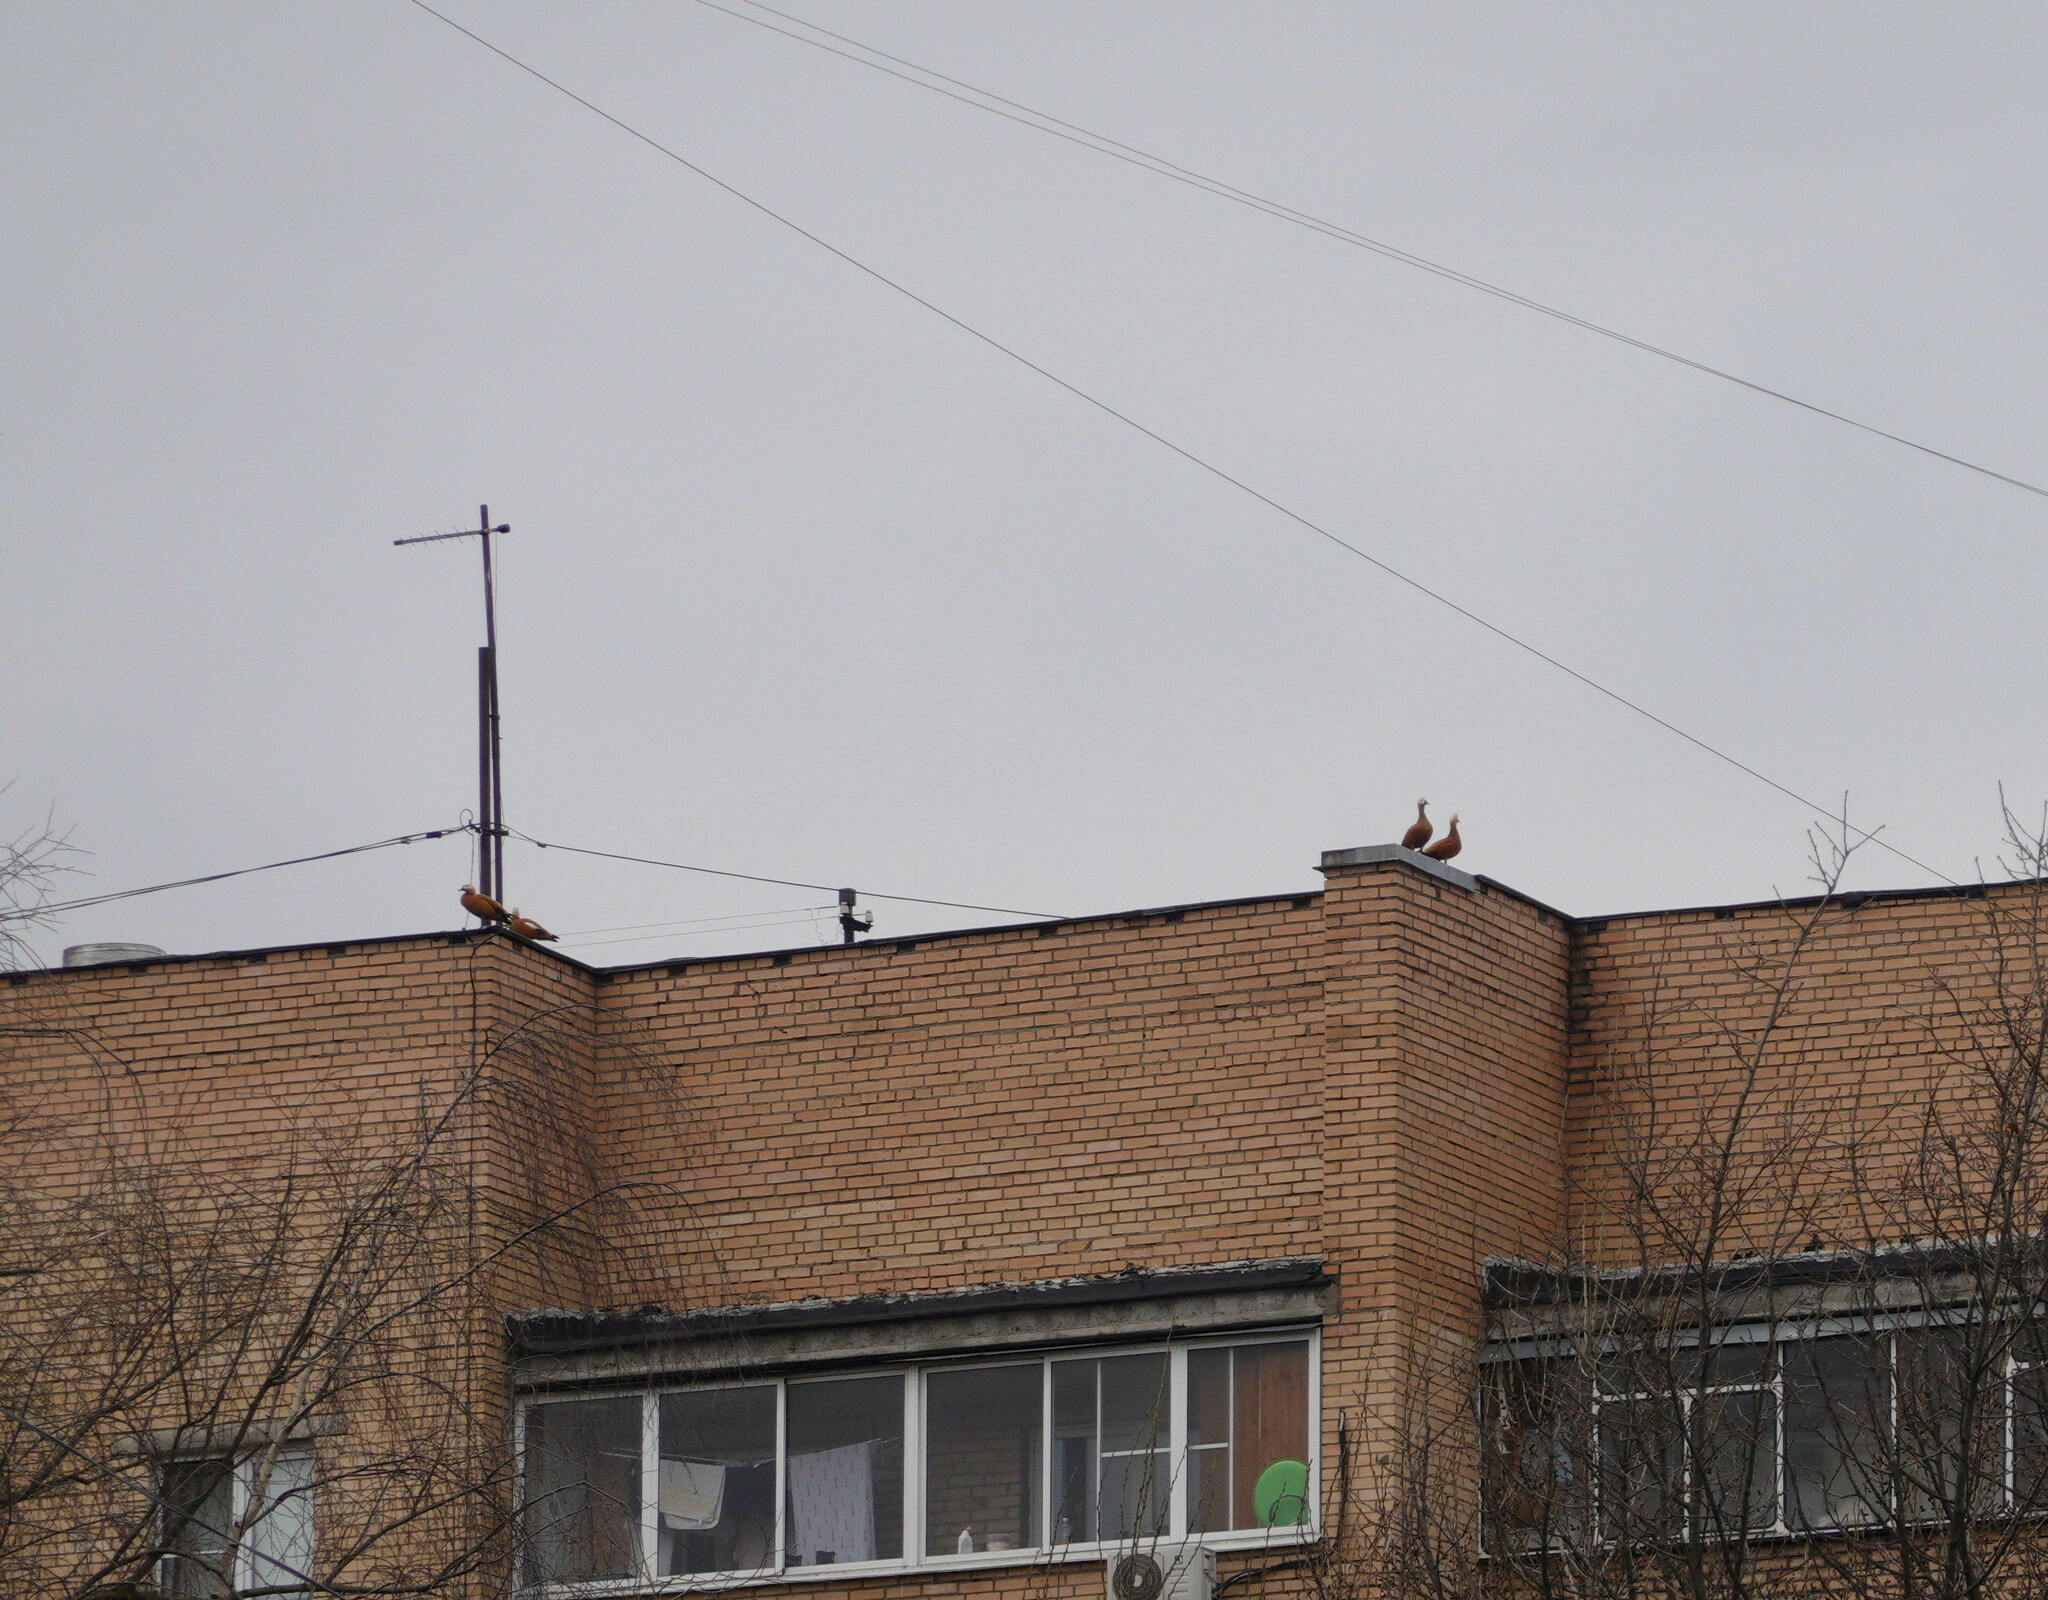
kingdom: Animalia
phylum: Chordata
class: Aves
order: Anseriformes
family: Anatidae
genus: Tadorna
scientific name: Tadorna ferruginea
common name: Ruddy shelduck
